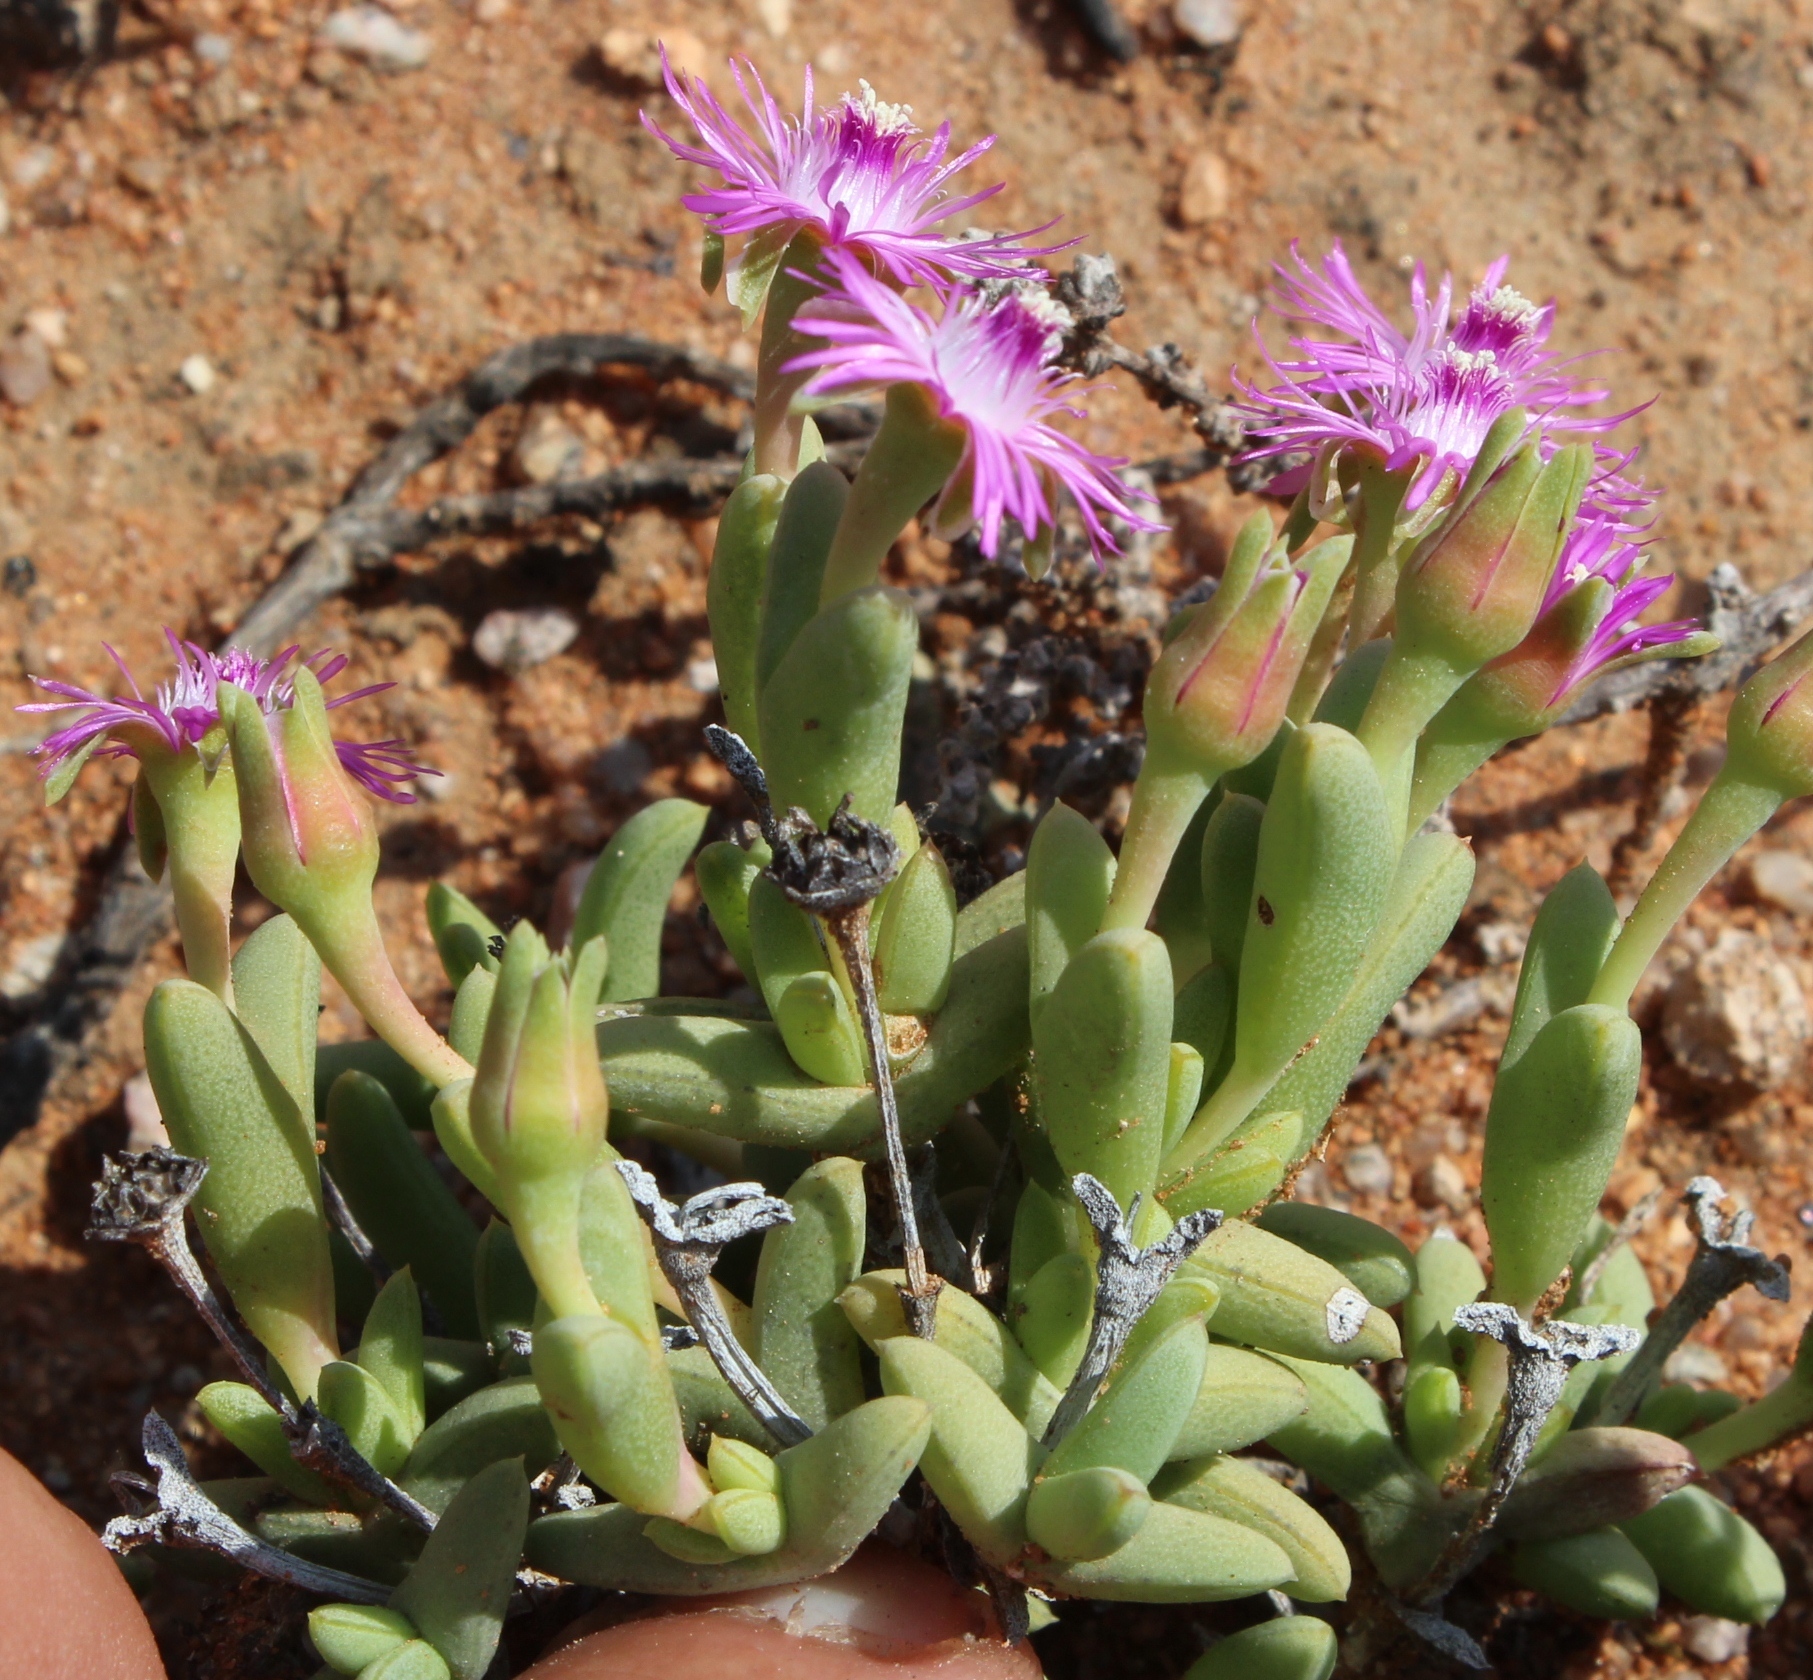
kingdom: Plantae
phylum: Tracheophyta
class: Magnoliopsida
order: Caryophyllales
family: Aizoaceae
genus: Antimima
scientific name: Antimima compacta
